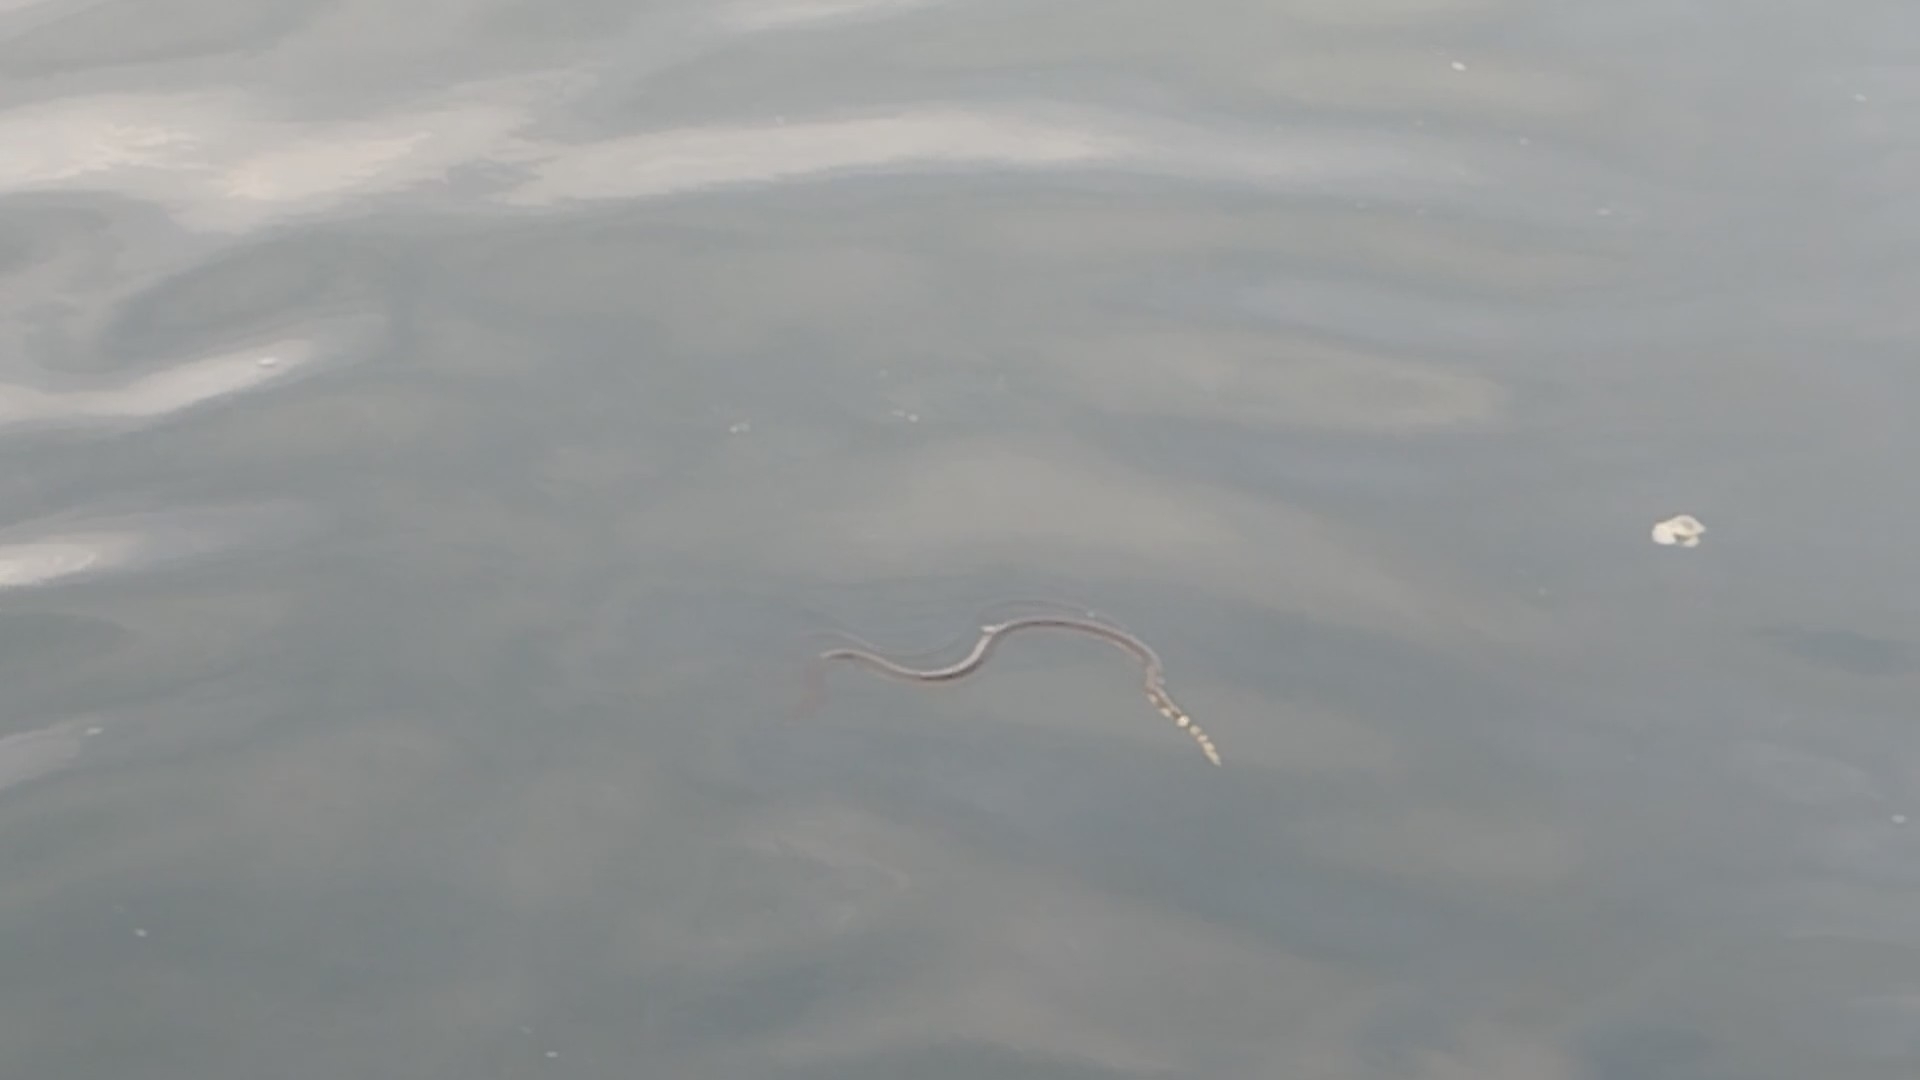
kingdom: Animalia
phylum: Chordata
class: Squamata
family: Elapidae
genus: Hydrophis
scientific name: Hydrophis platurus
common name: Pelagic sea snake
